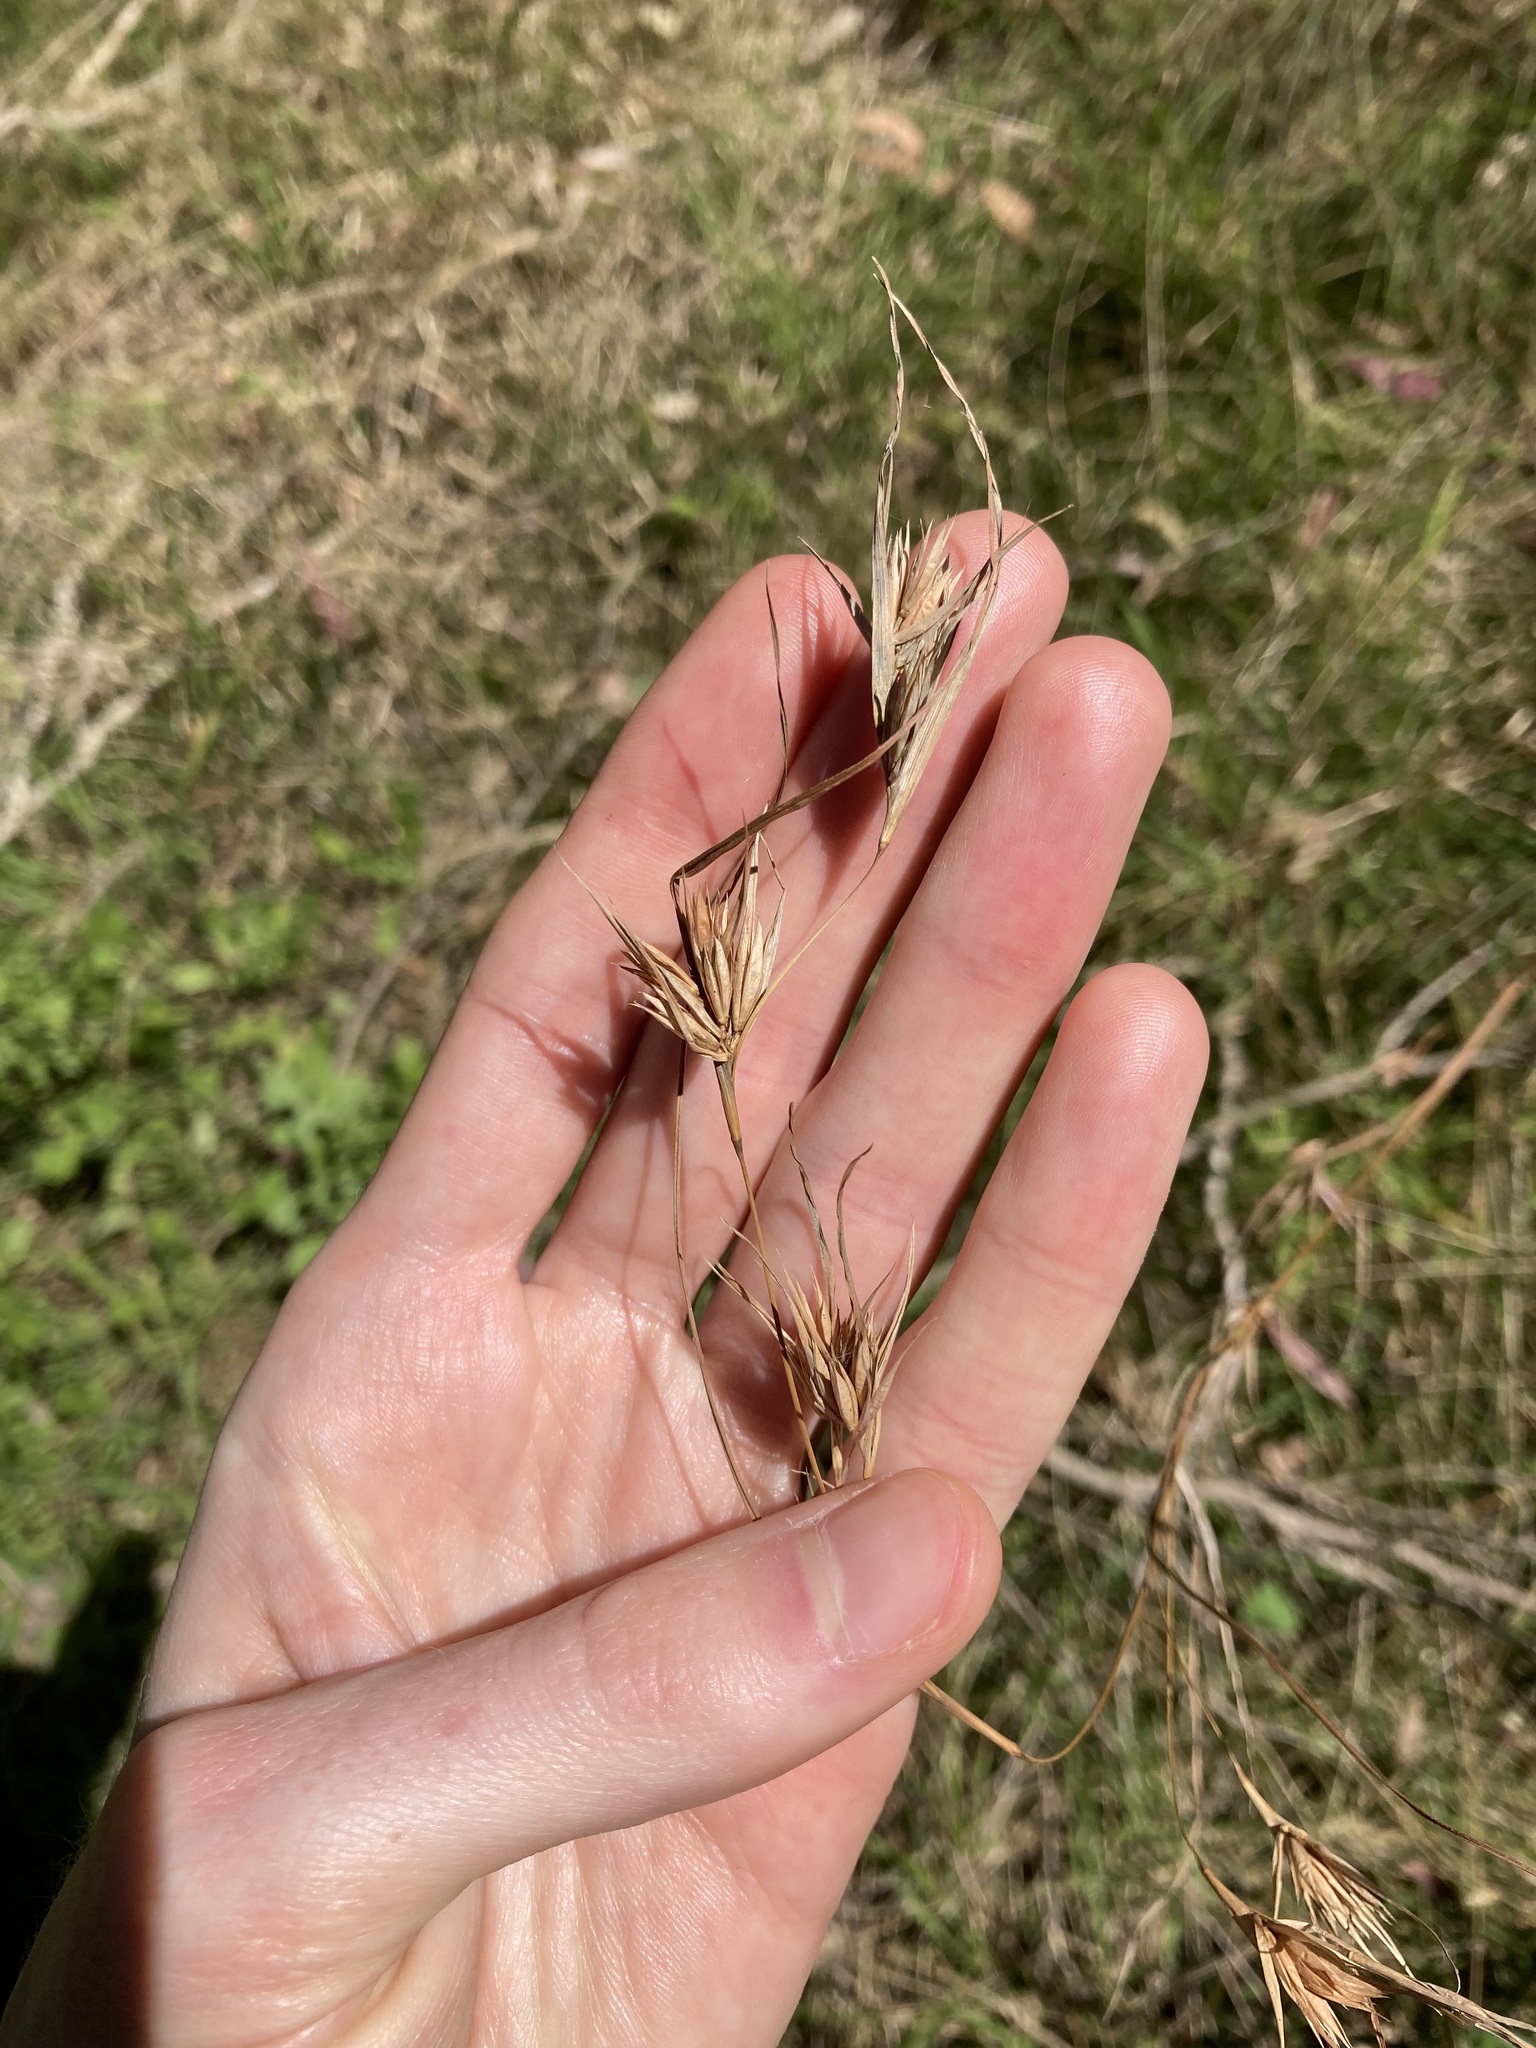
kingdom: Plantae
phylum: Tracheophyta
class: Liliopsida
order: Poales
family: Poaceae
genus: Themeda
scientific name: Themeda triandra
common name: Kangaroo grass
